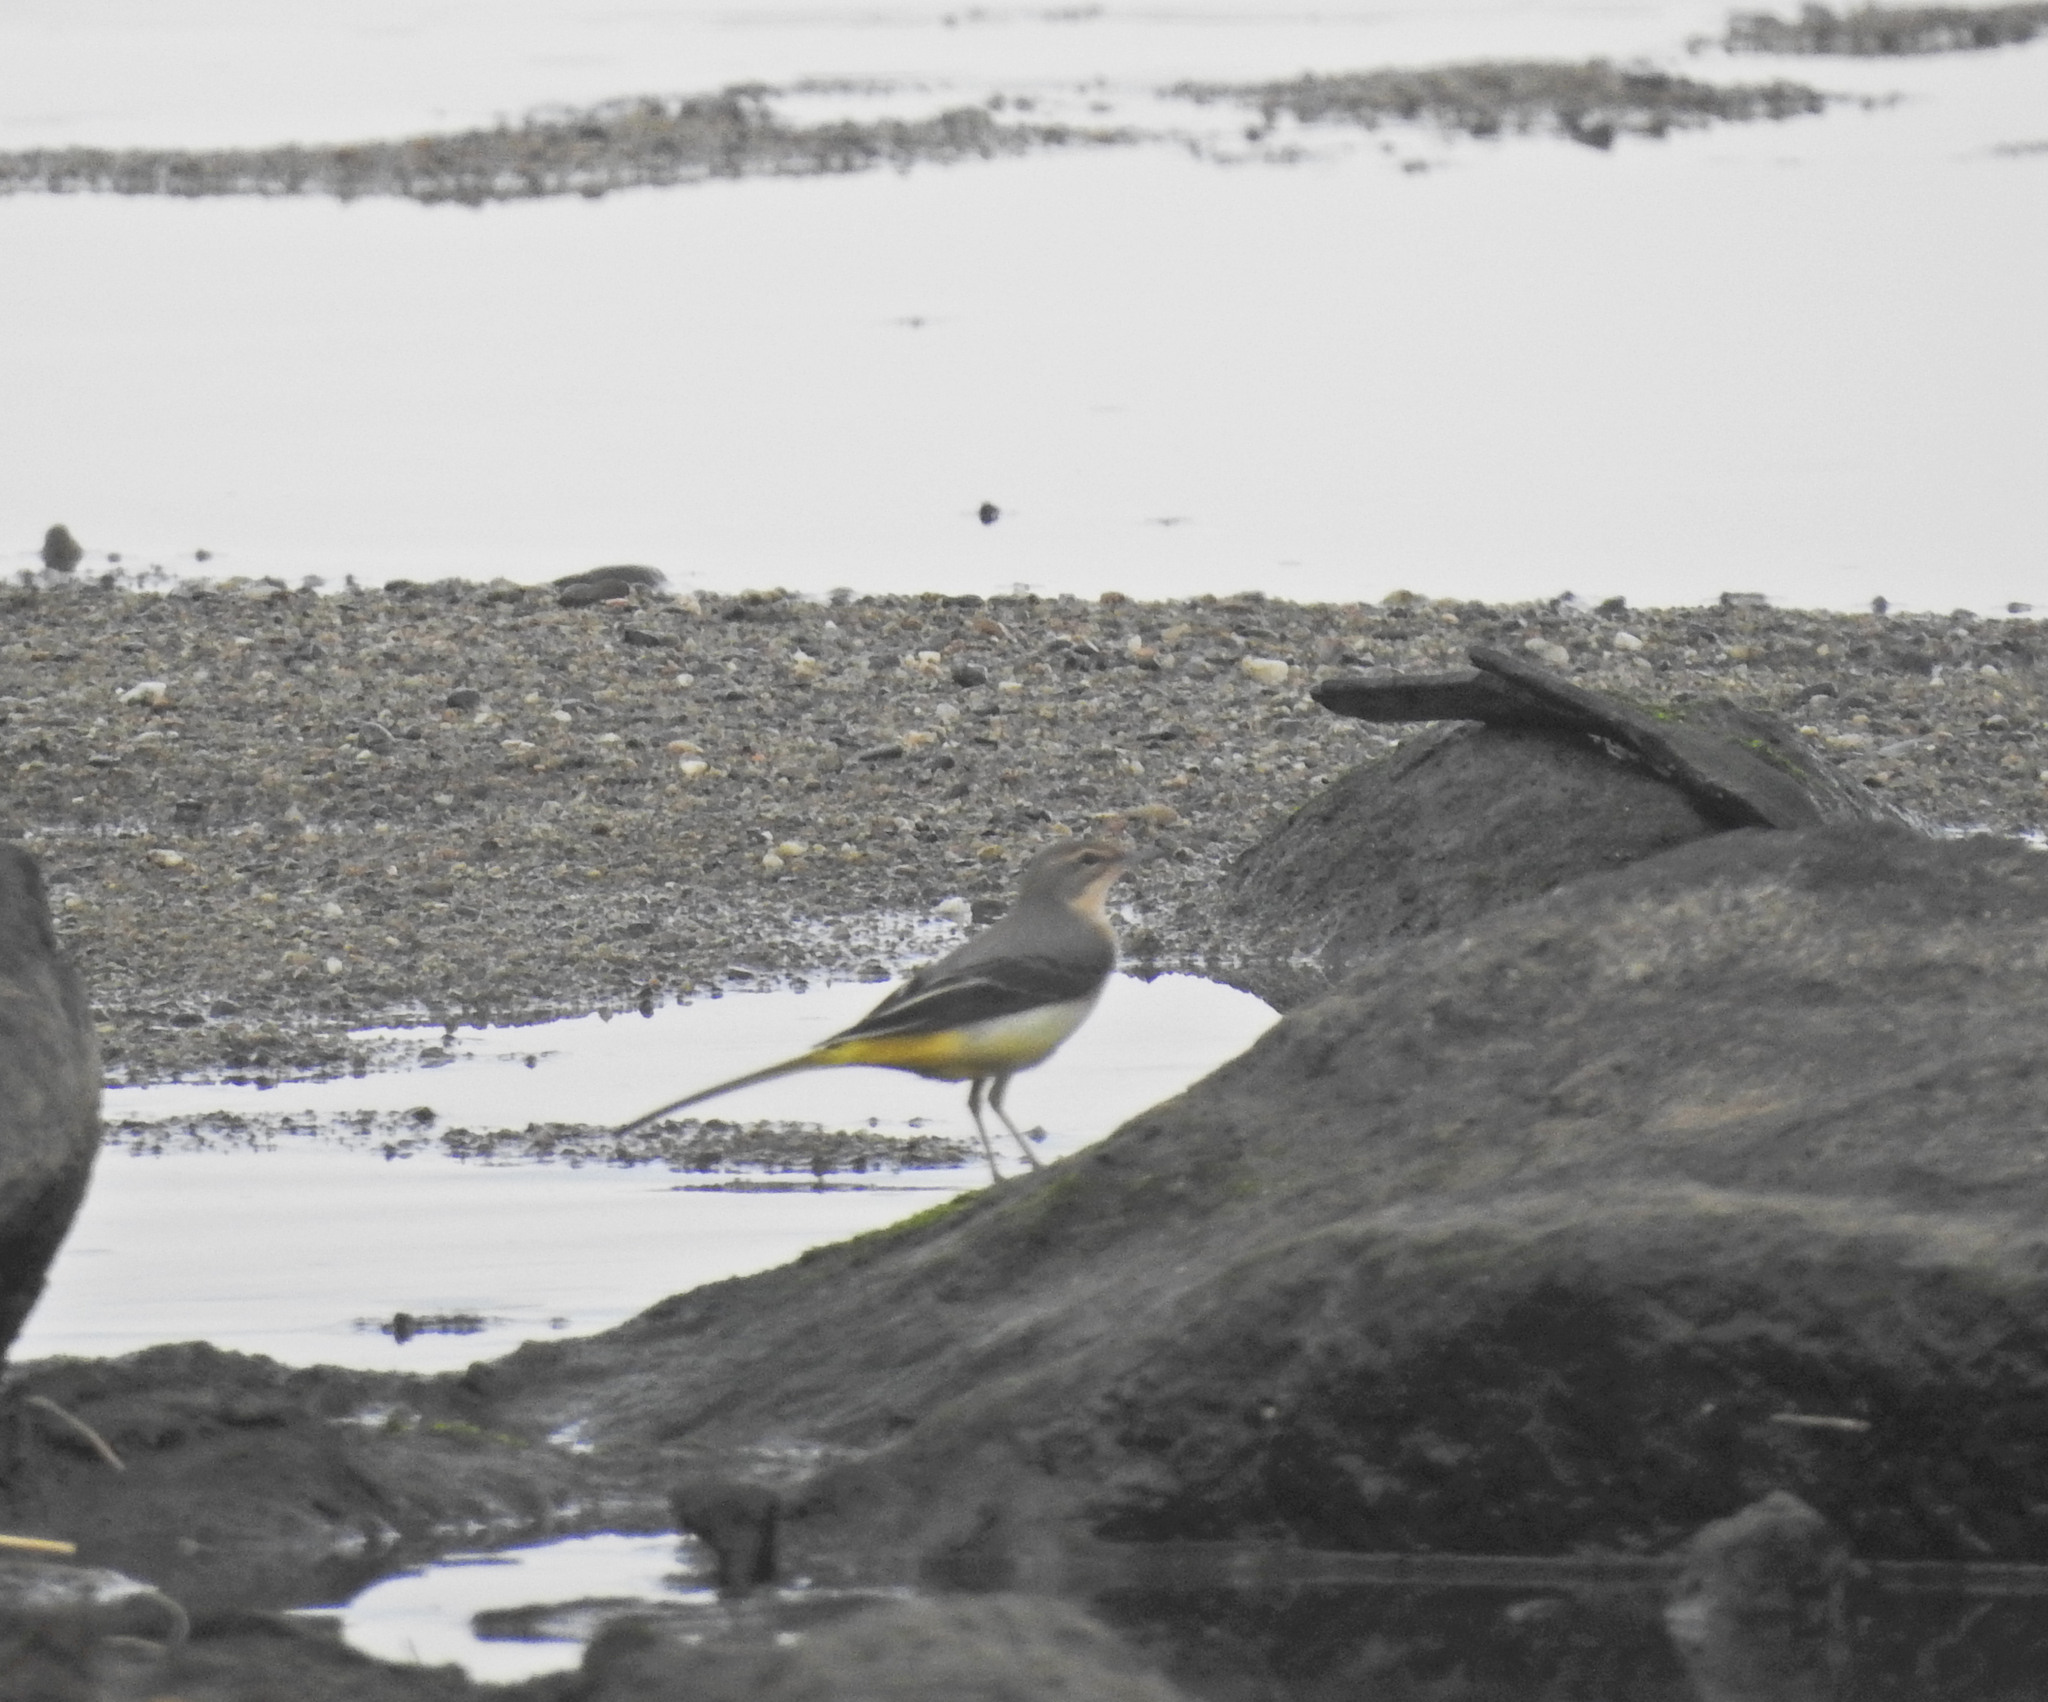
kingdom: Animalia
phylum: Chordata
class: Aves
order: Passeriformes
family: Motacillidae
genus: Motacilla
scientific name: Motacilla cinerea
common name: Grey wagtail
